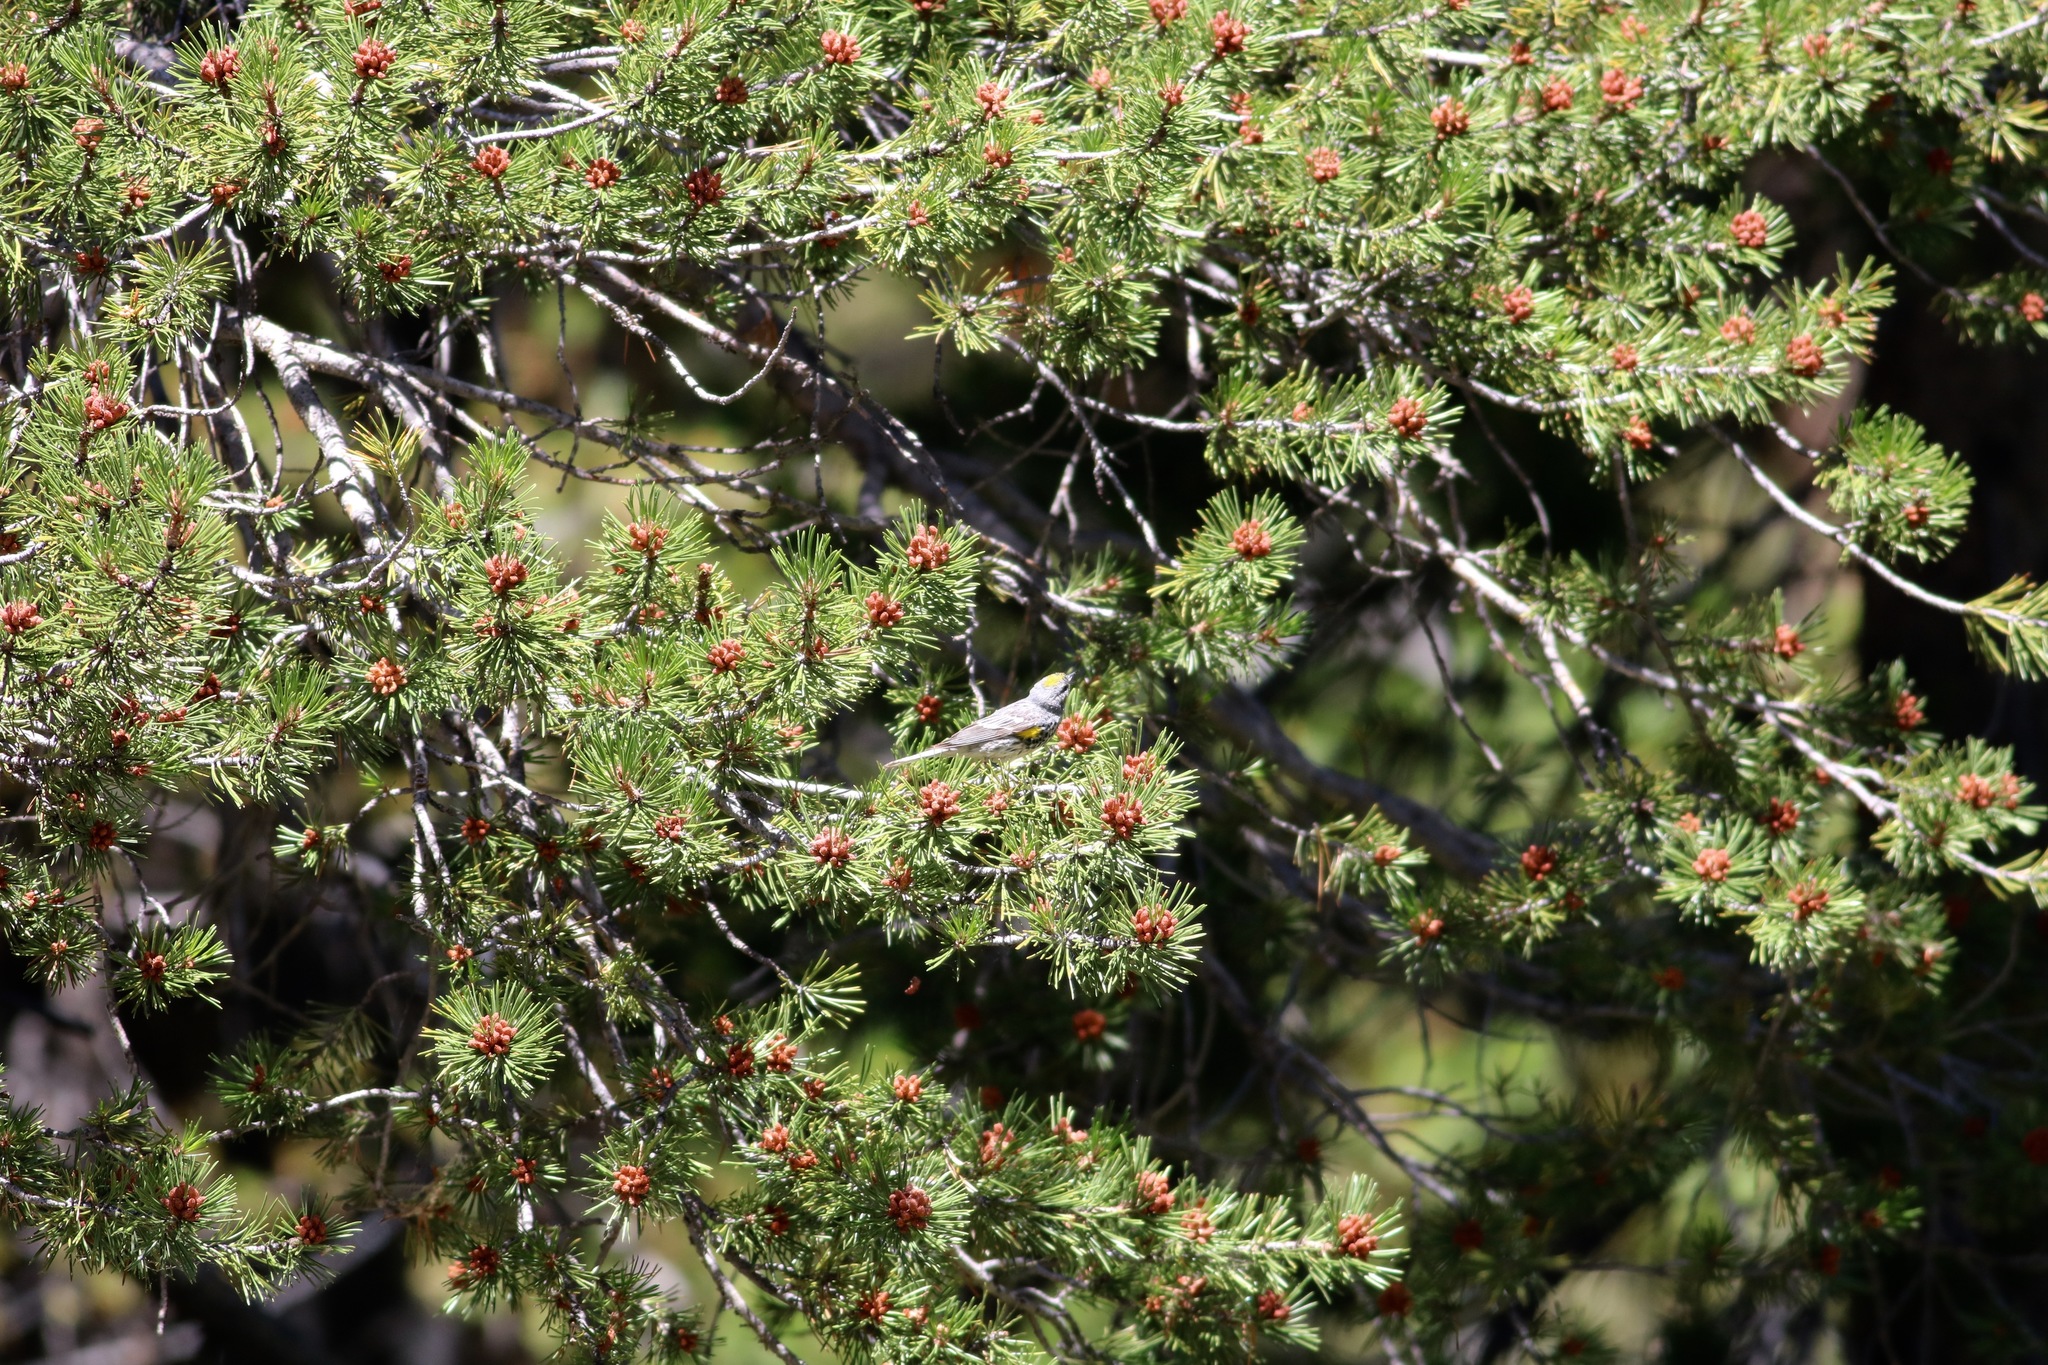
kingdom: Animalia
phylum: Chordata
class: Aves
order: Passeriformes
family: Parulidae
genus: Setophaga
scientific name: Setophaga coronata
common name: Myrtle warbler
